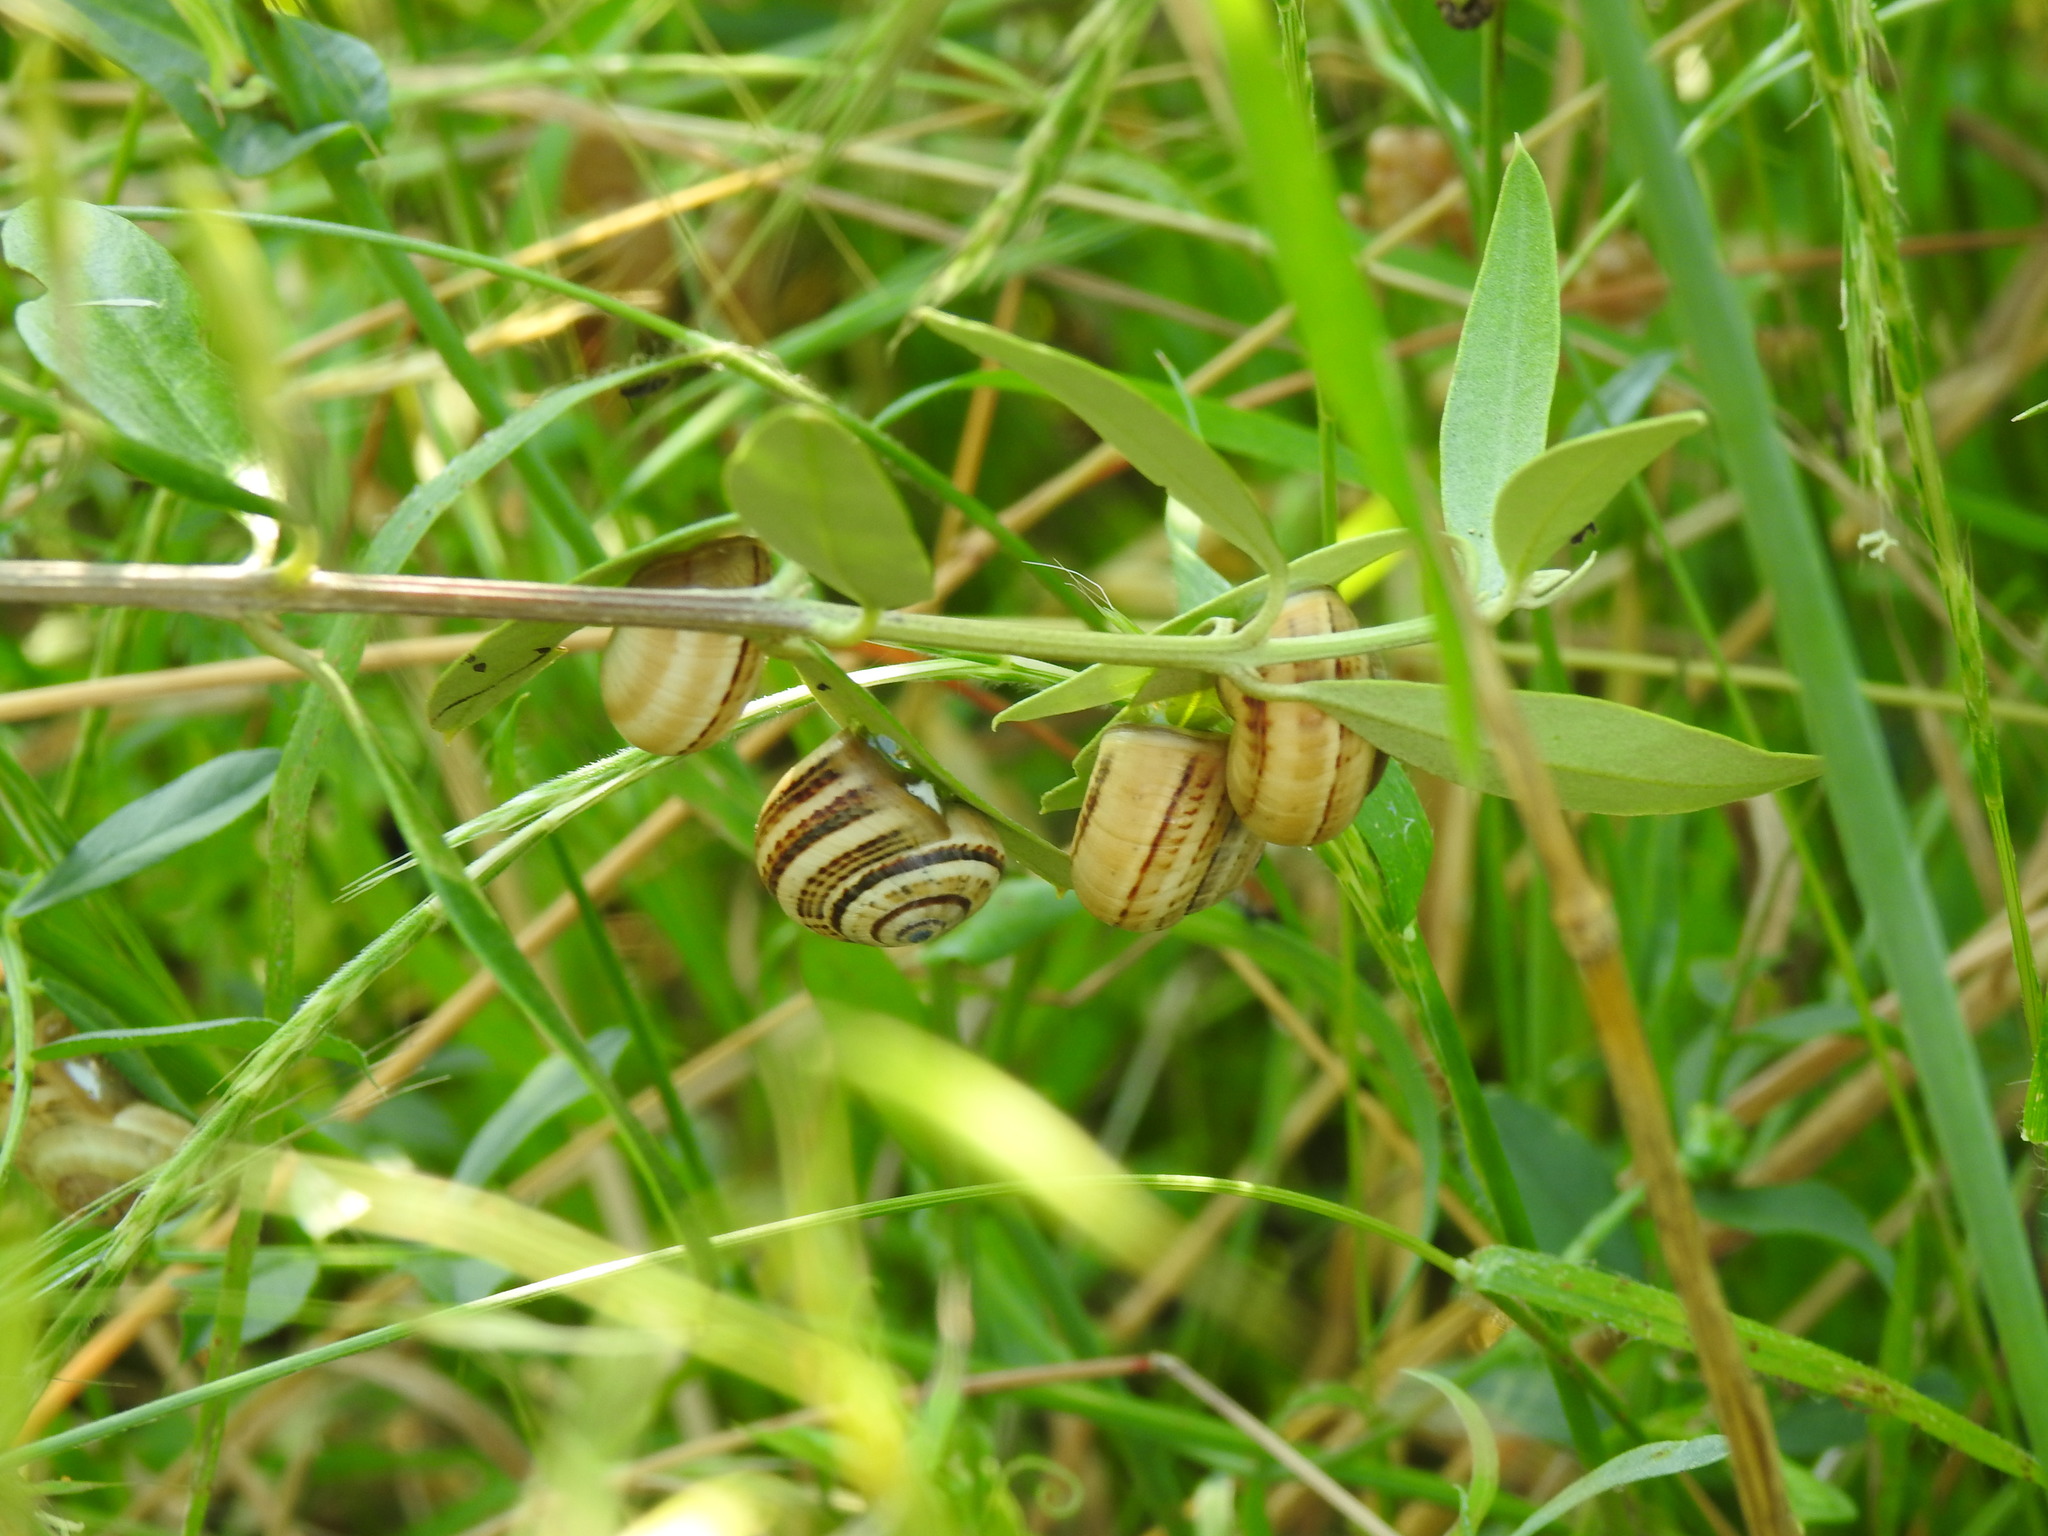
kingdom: Animalia
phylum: Mollusca
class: Gastropoda
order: Stylommatophora
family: Helicidae
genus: Theba
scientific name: Theba pisana
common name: White snail
